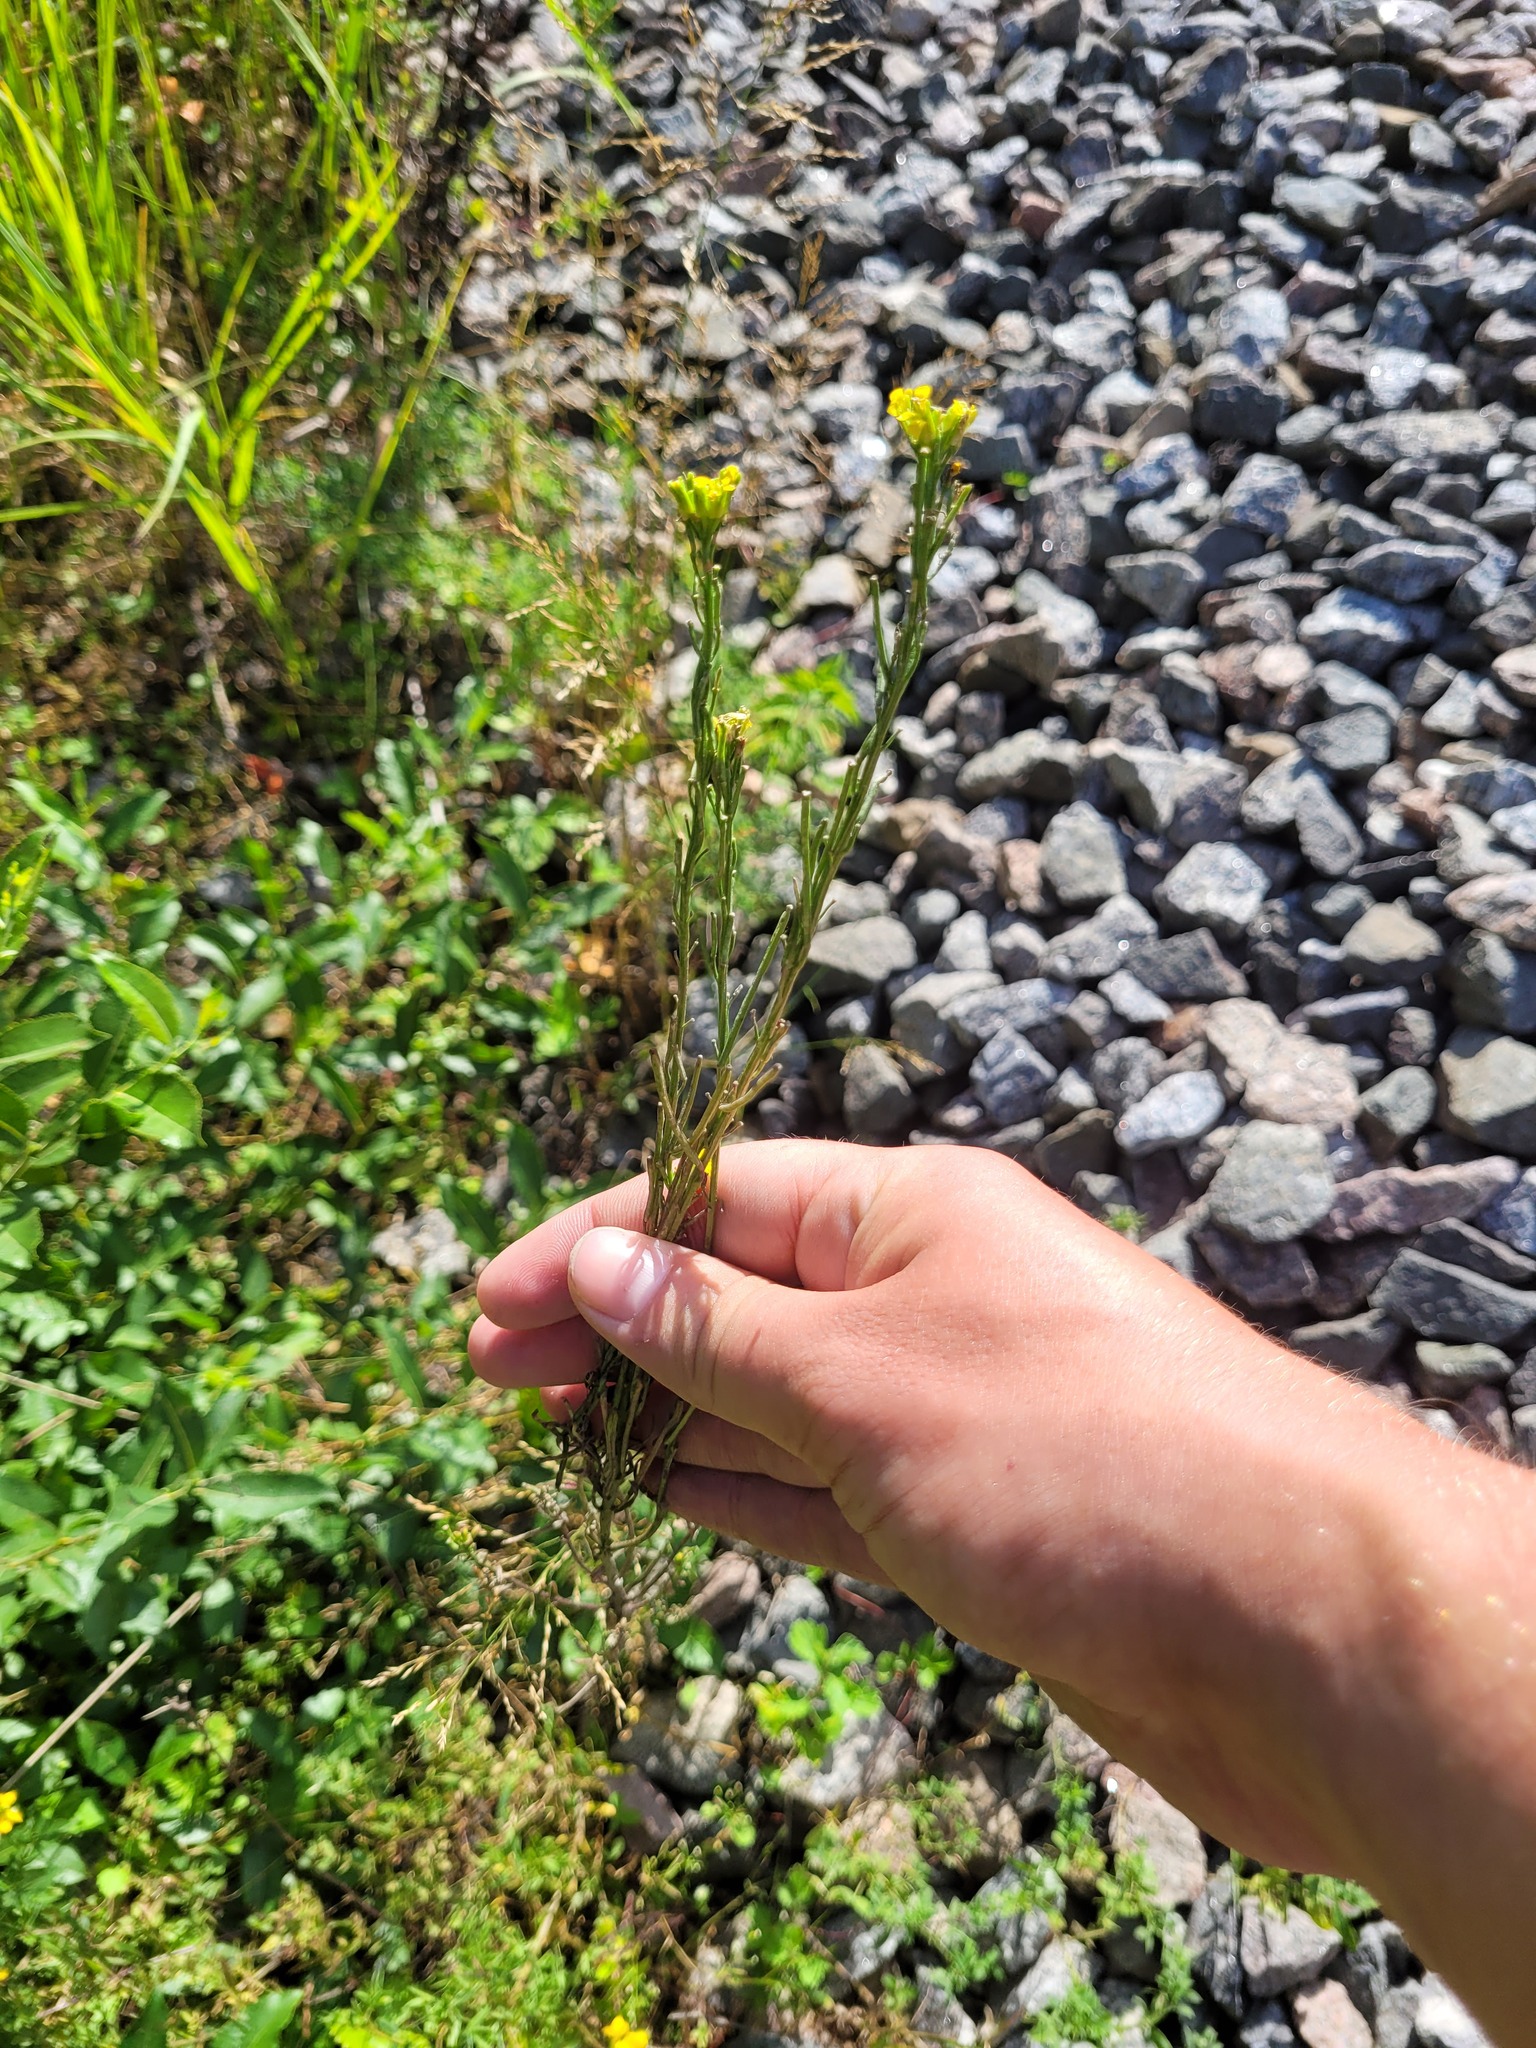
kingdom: Plantae
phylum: Tracheophyta
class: Magnoliopsida
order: Brassicales
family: Brassicaceae
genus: Erysimum
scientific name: Erysimum hieraciifolium
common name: European wallflower
